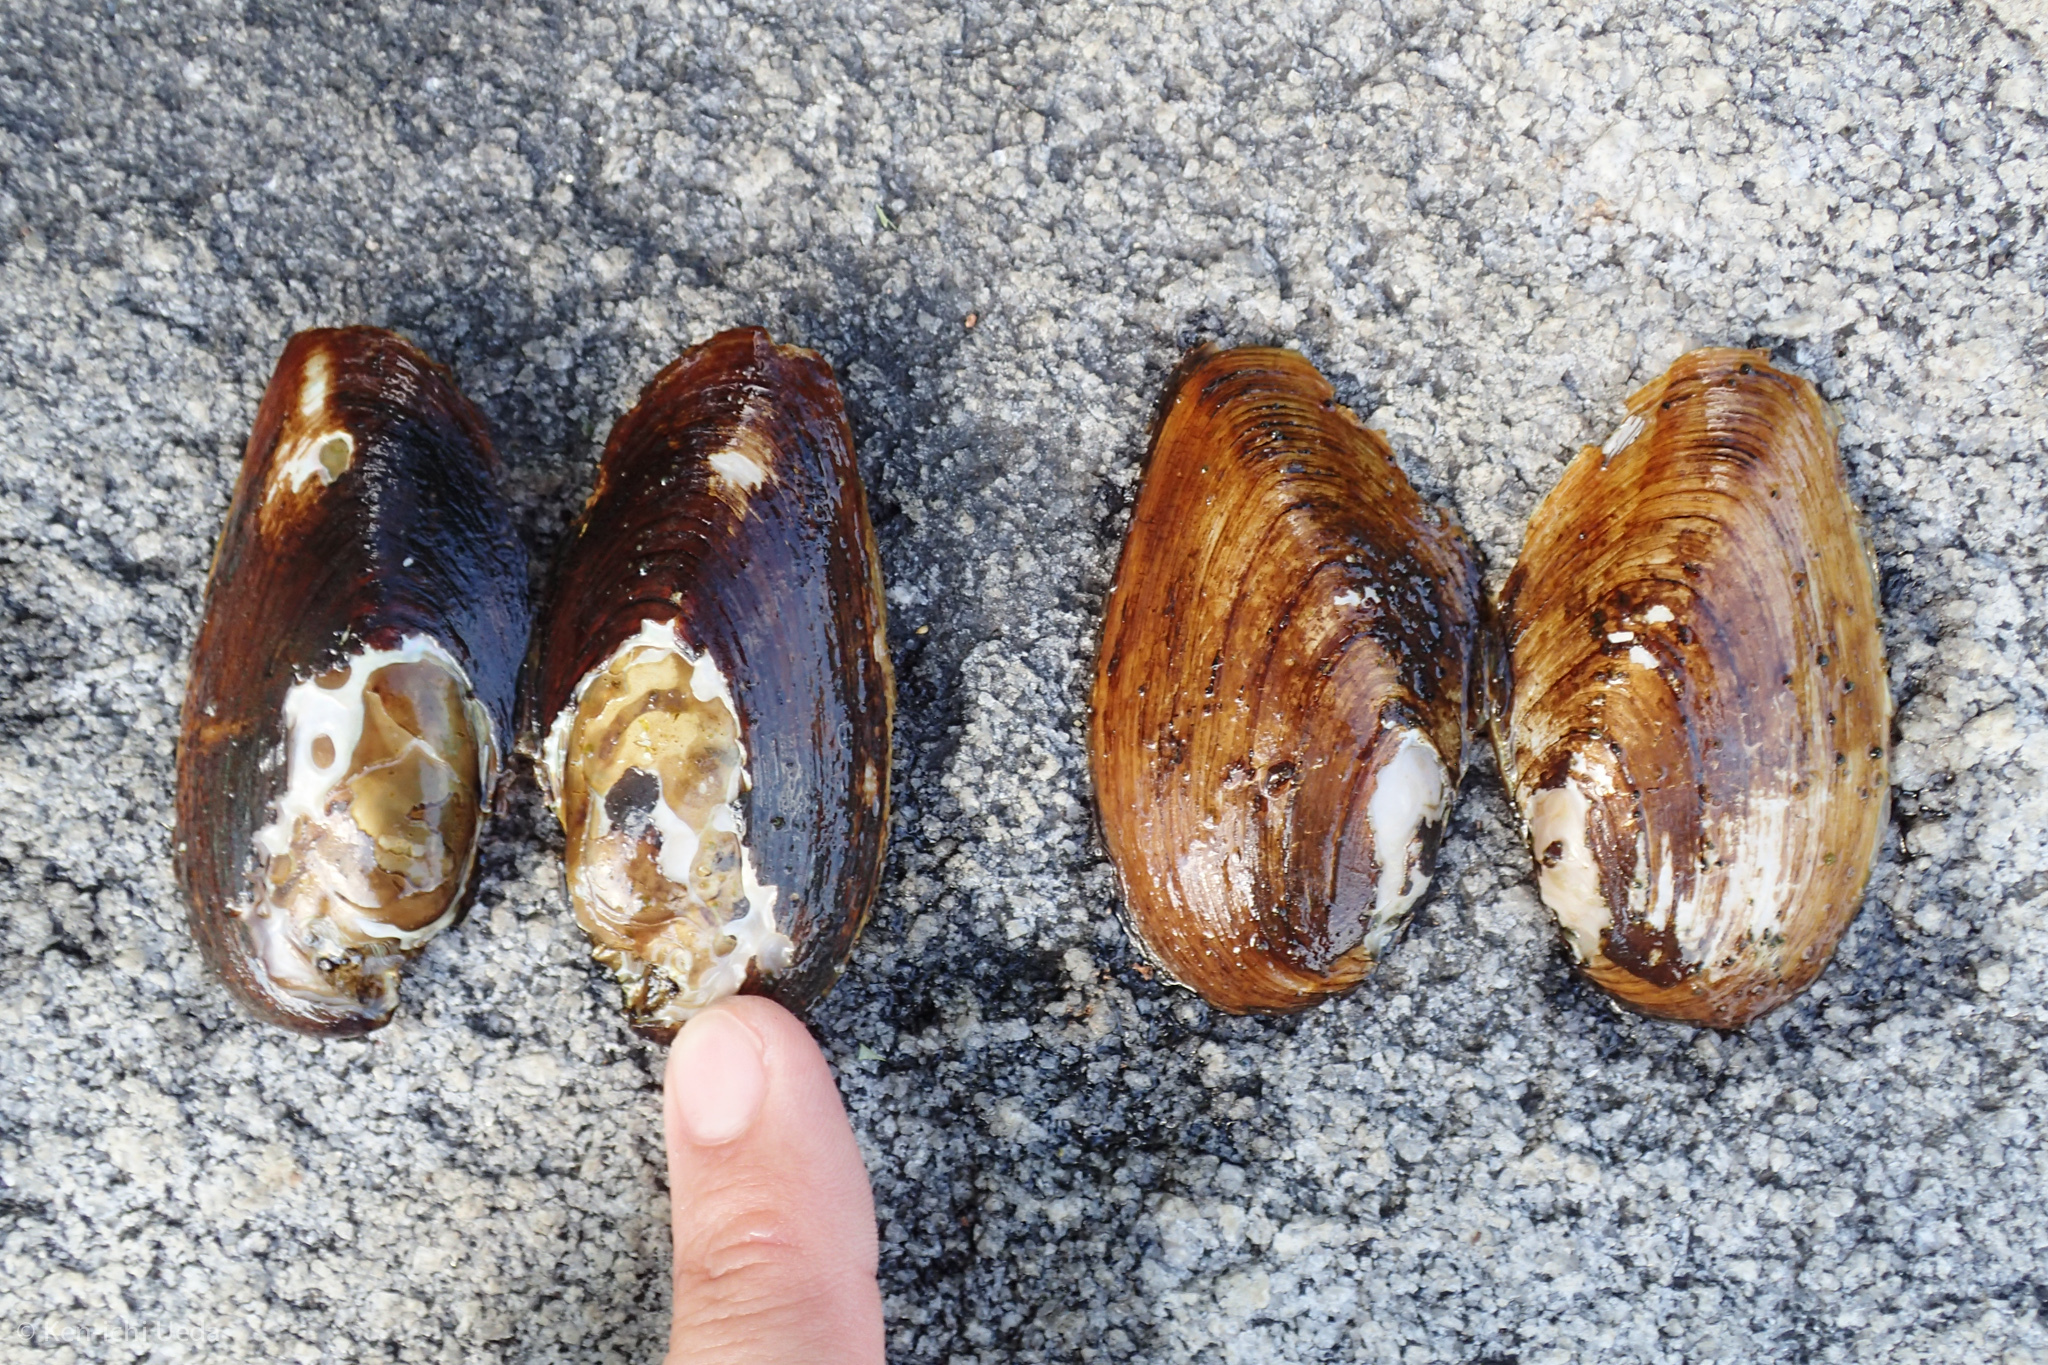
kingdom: Animalia
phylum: Mollusca
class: Bivalvia
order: Unionida
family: Unionidae
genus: Elliptio
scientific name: Elliptio complanata
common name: Eastern elliptio
